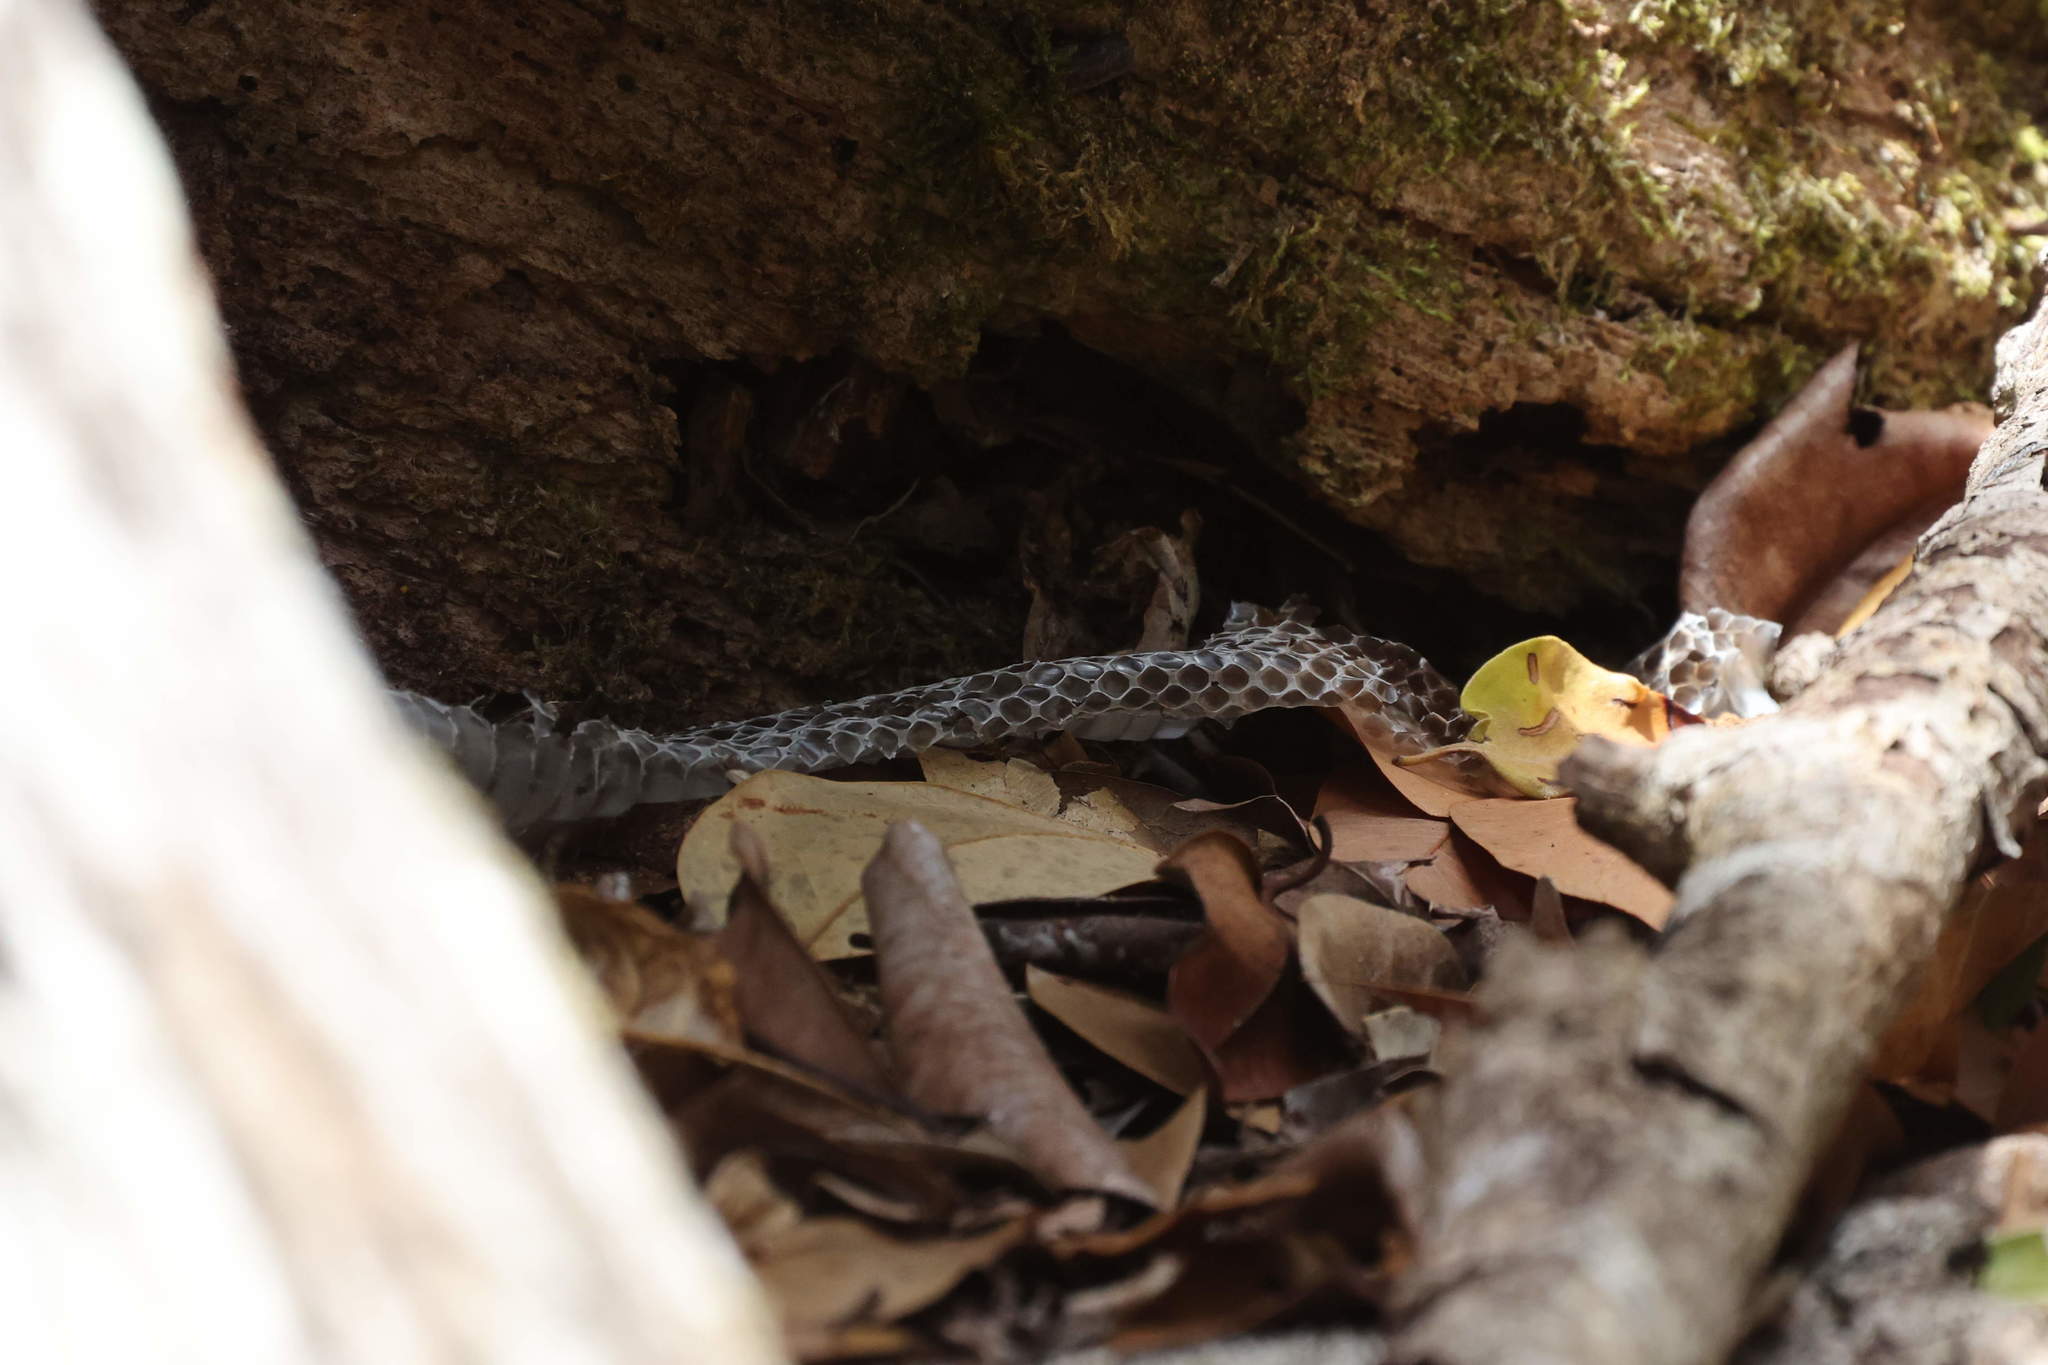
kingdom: Animalia
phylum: Chordata
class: Squamata
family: Colubridae
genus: Alsophis
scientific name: Alsophis danforthi
